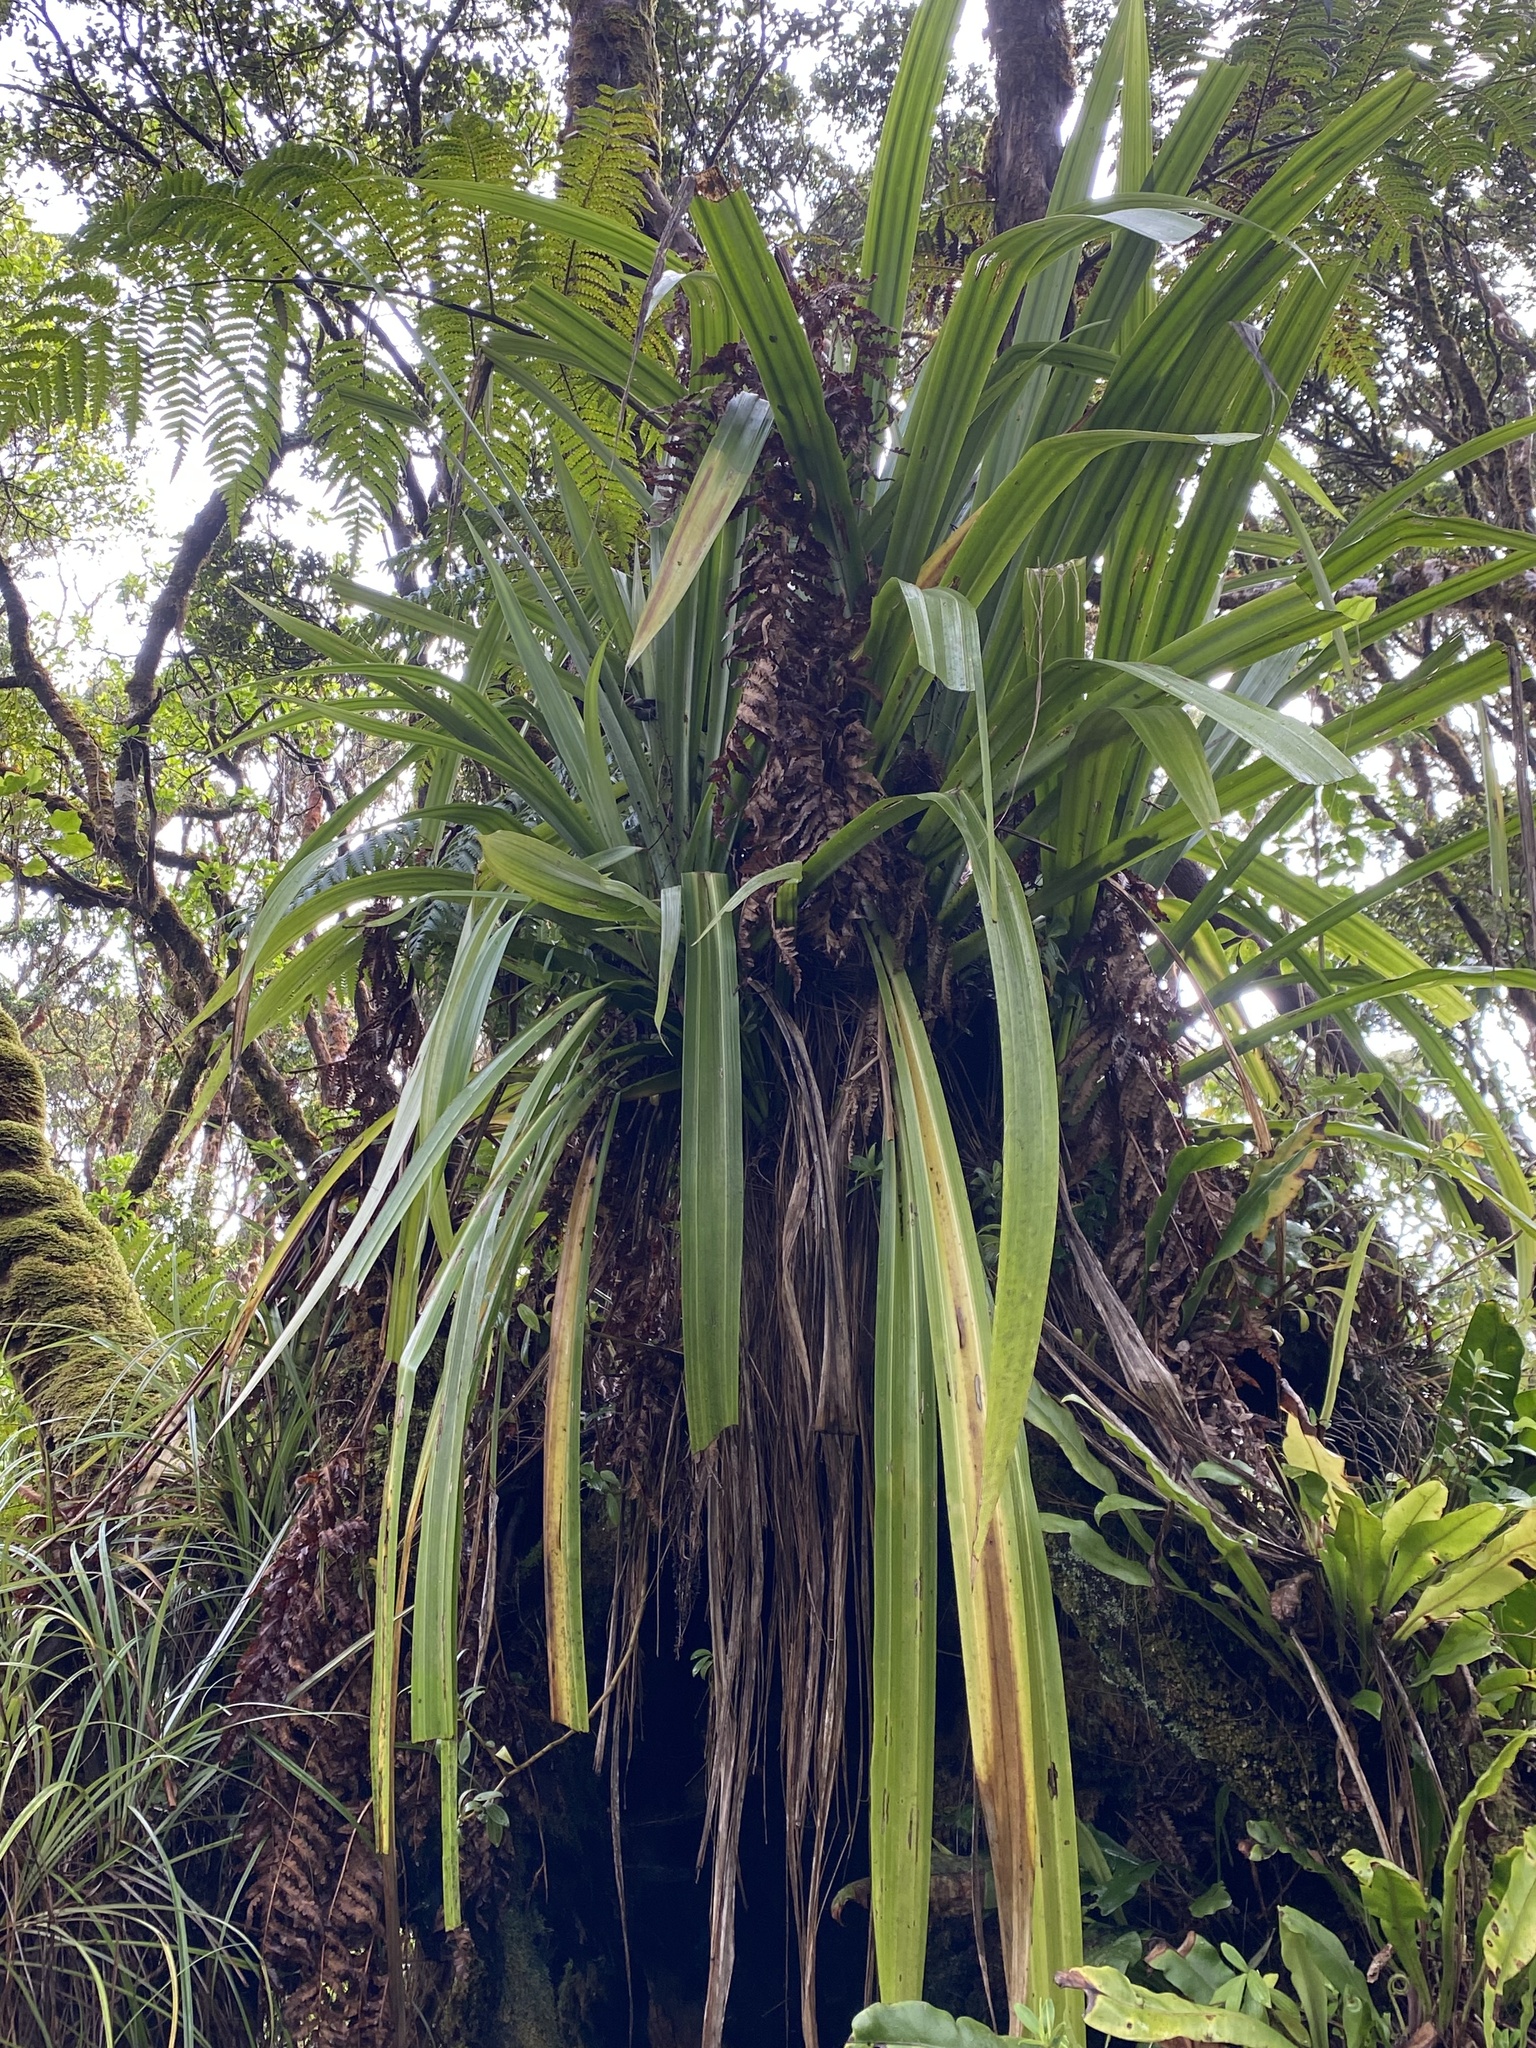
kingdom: Plantae
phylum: Tracheophyta
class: Liliopsida
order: Asparagales
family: Asteliaceae
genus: Astelia
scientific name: Astelia menziesiana
